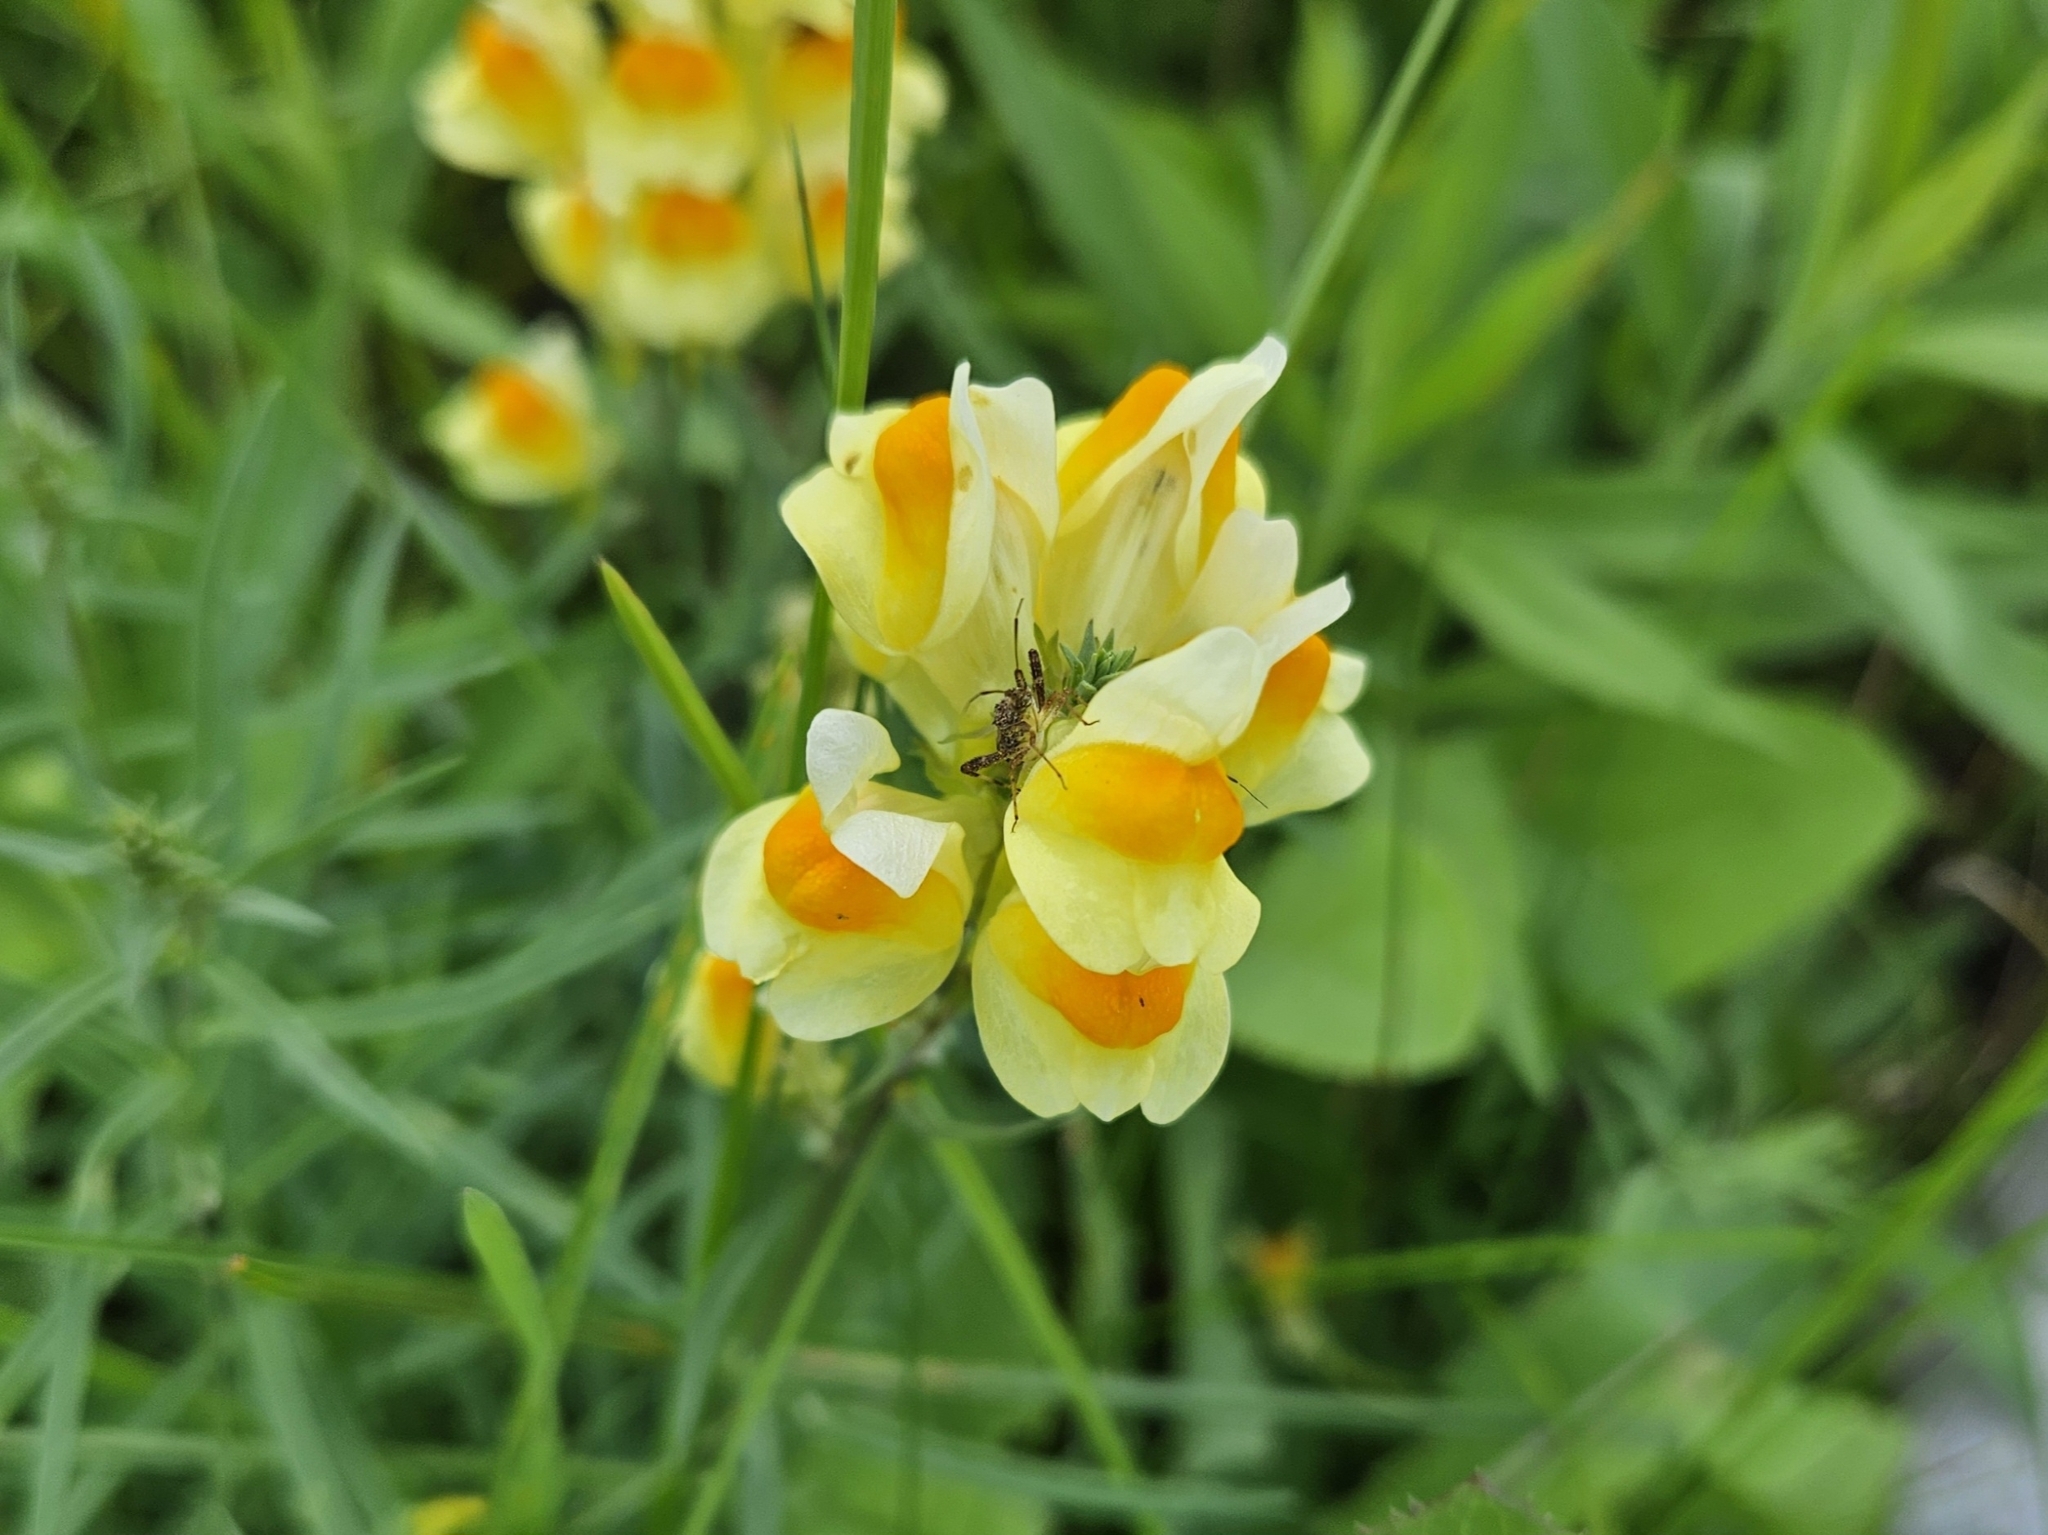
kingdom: Plantae
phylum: Tracheophyta
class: Magnoliopsida
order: Lamiales
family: Plantaginaceae
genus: Linaria
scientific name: Linaria vulgaris
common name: Butter and eggs
